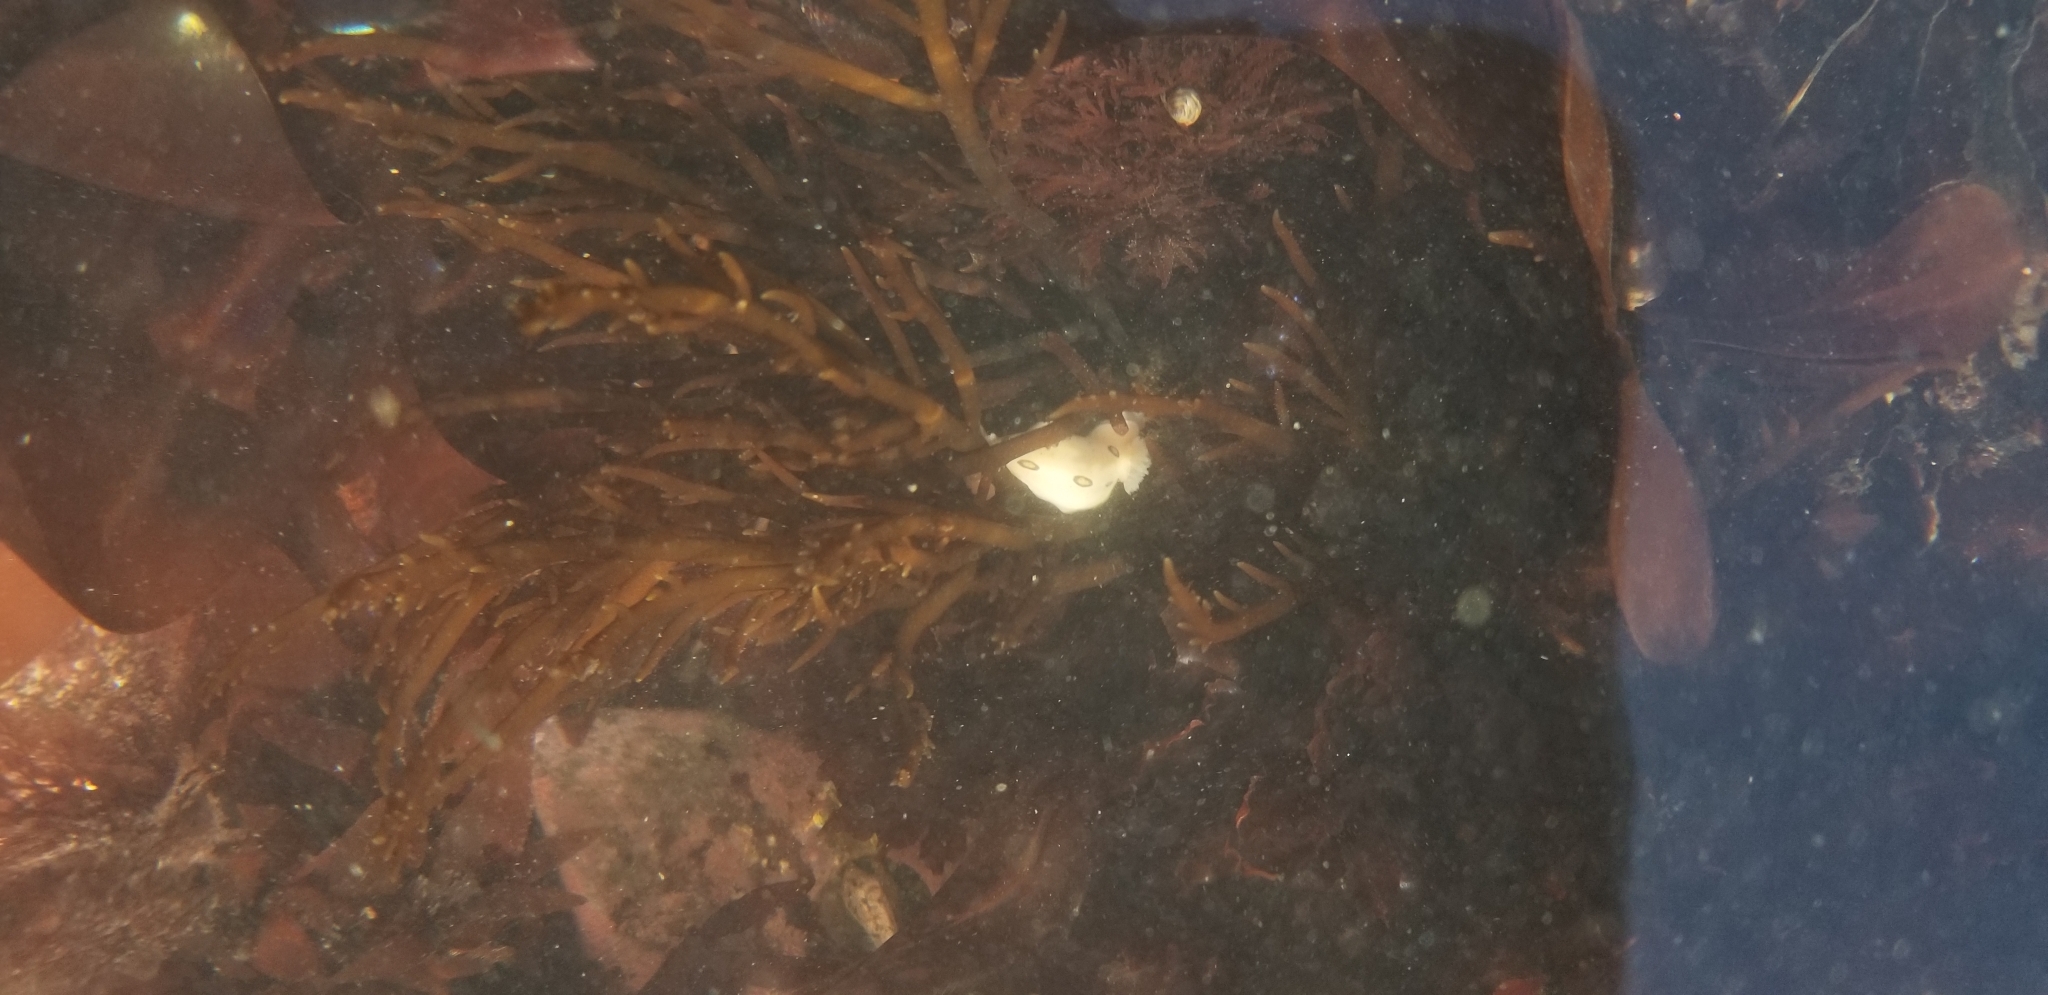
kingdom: Animalia
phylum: Mollusca
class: Gastropoda
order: Nudibranchia
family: Discodorididae
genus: Diaulula
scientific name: Diaulula sandiegensis
